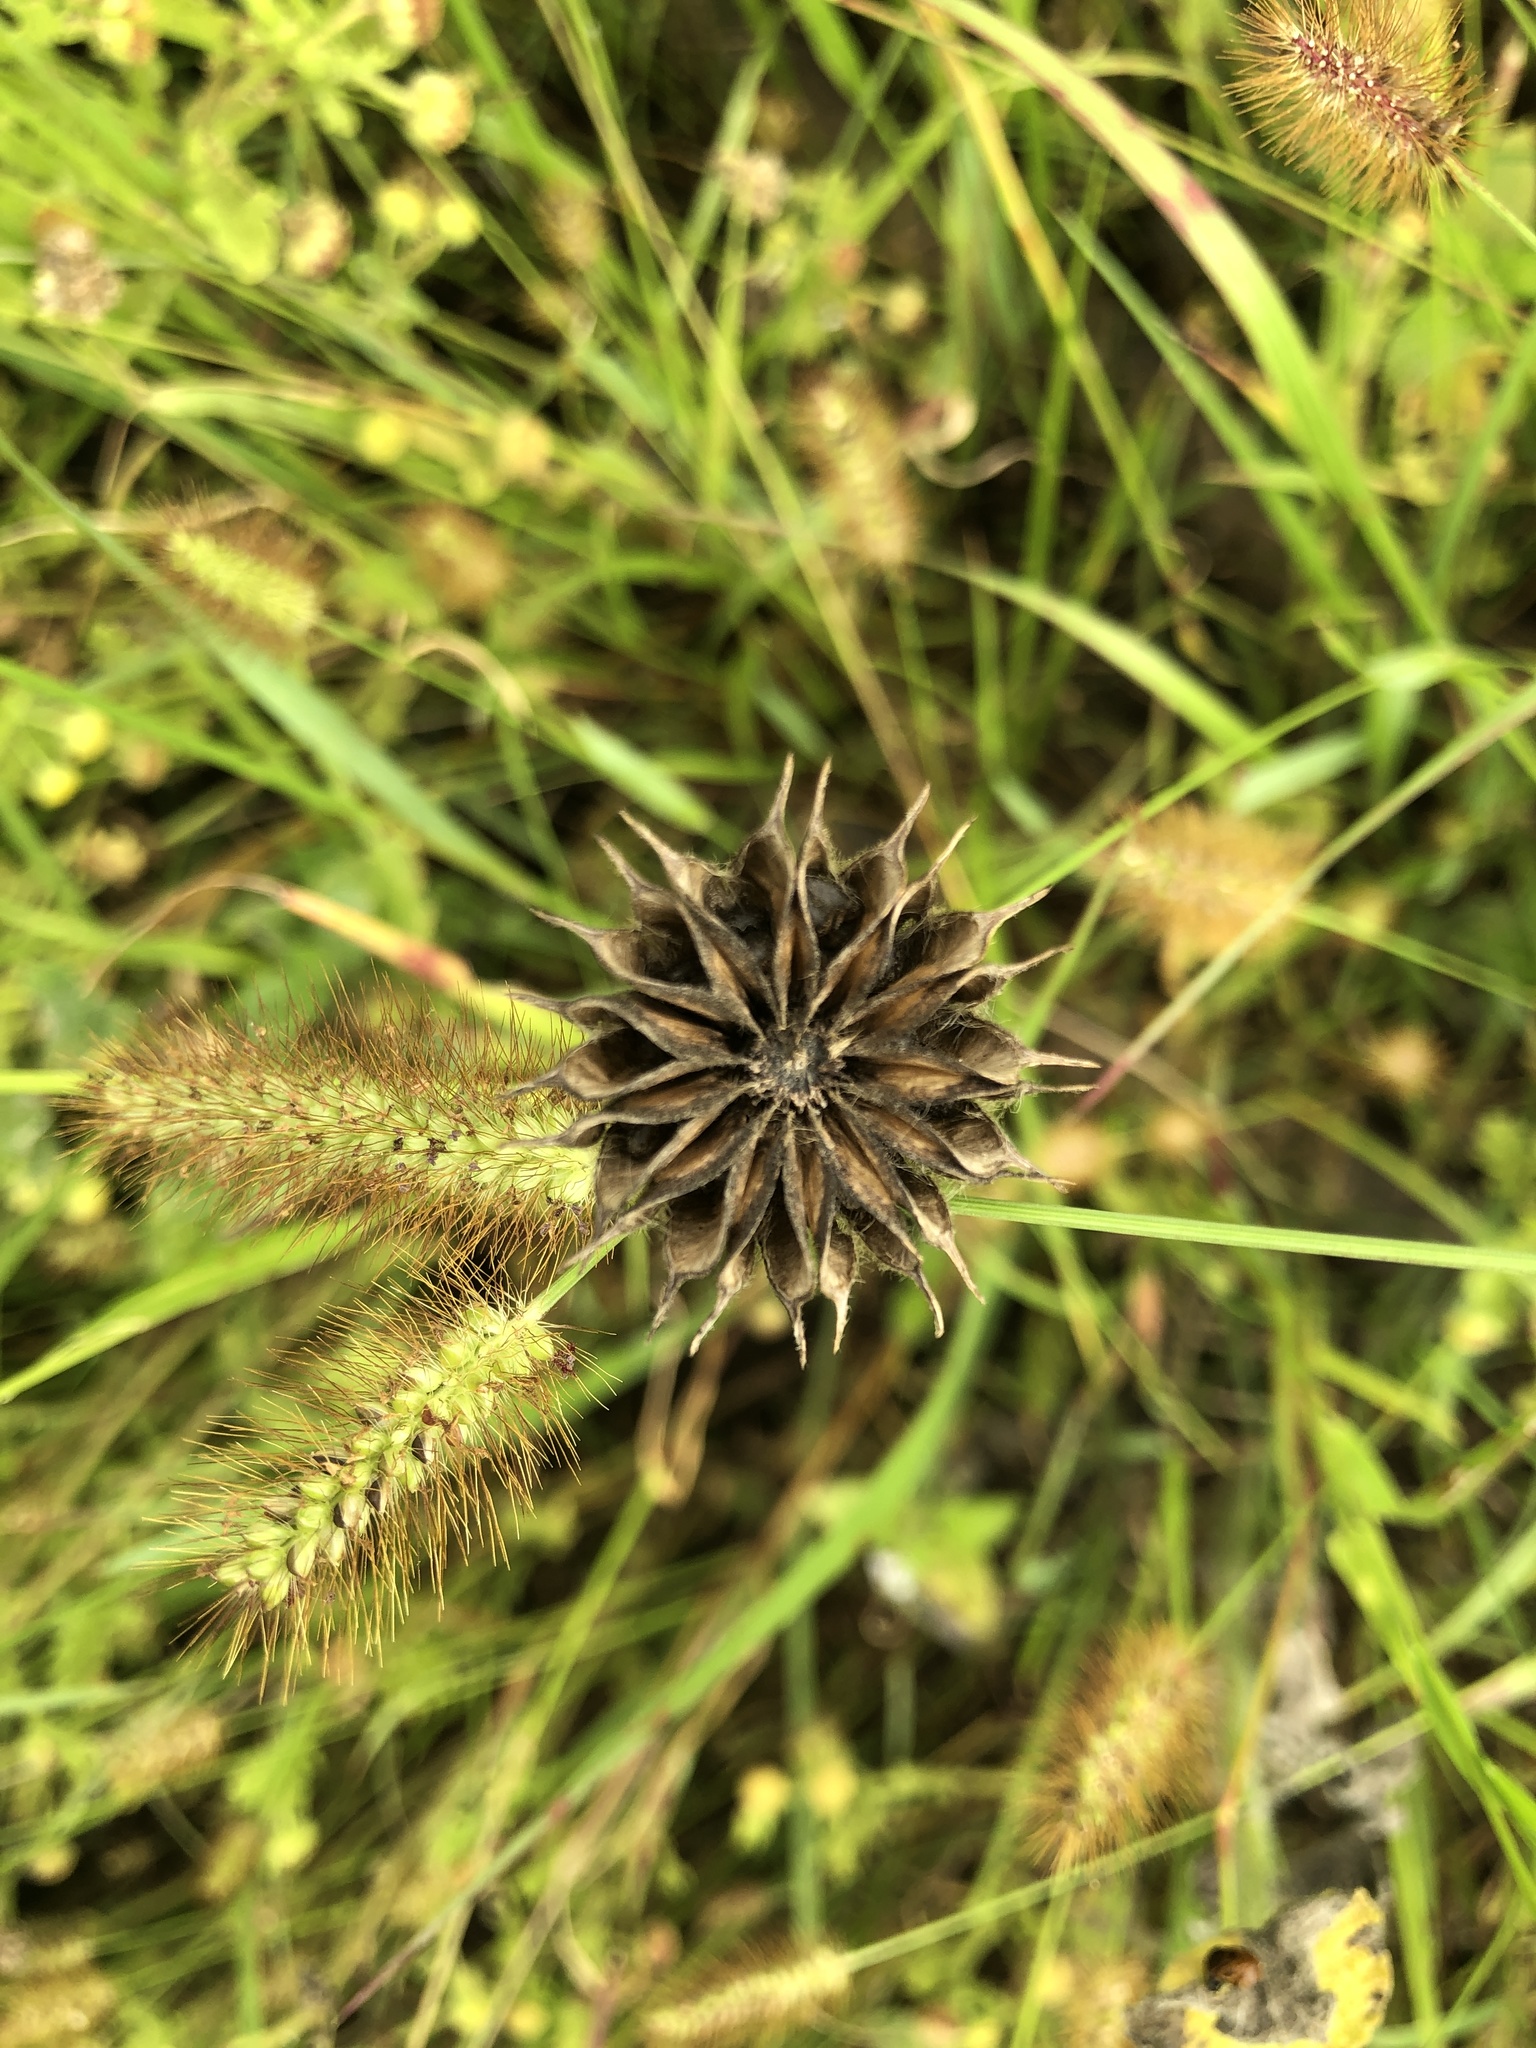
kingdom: Plantae
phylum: Tracheophyta
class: Magnoliopsida
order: Malvales
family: Malvaceae
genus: Abutilon
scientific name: Abutilon theophrasti
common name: Velvetleaf
